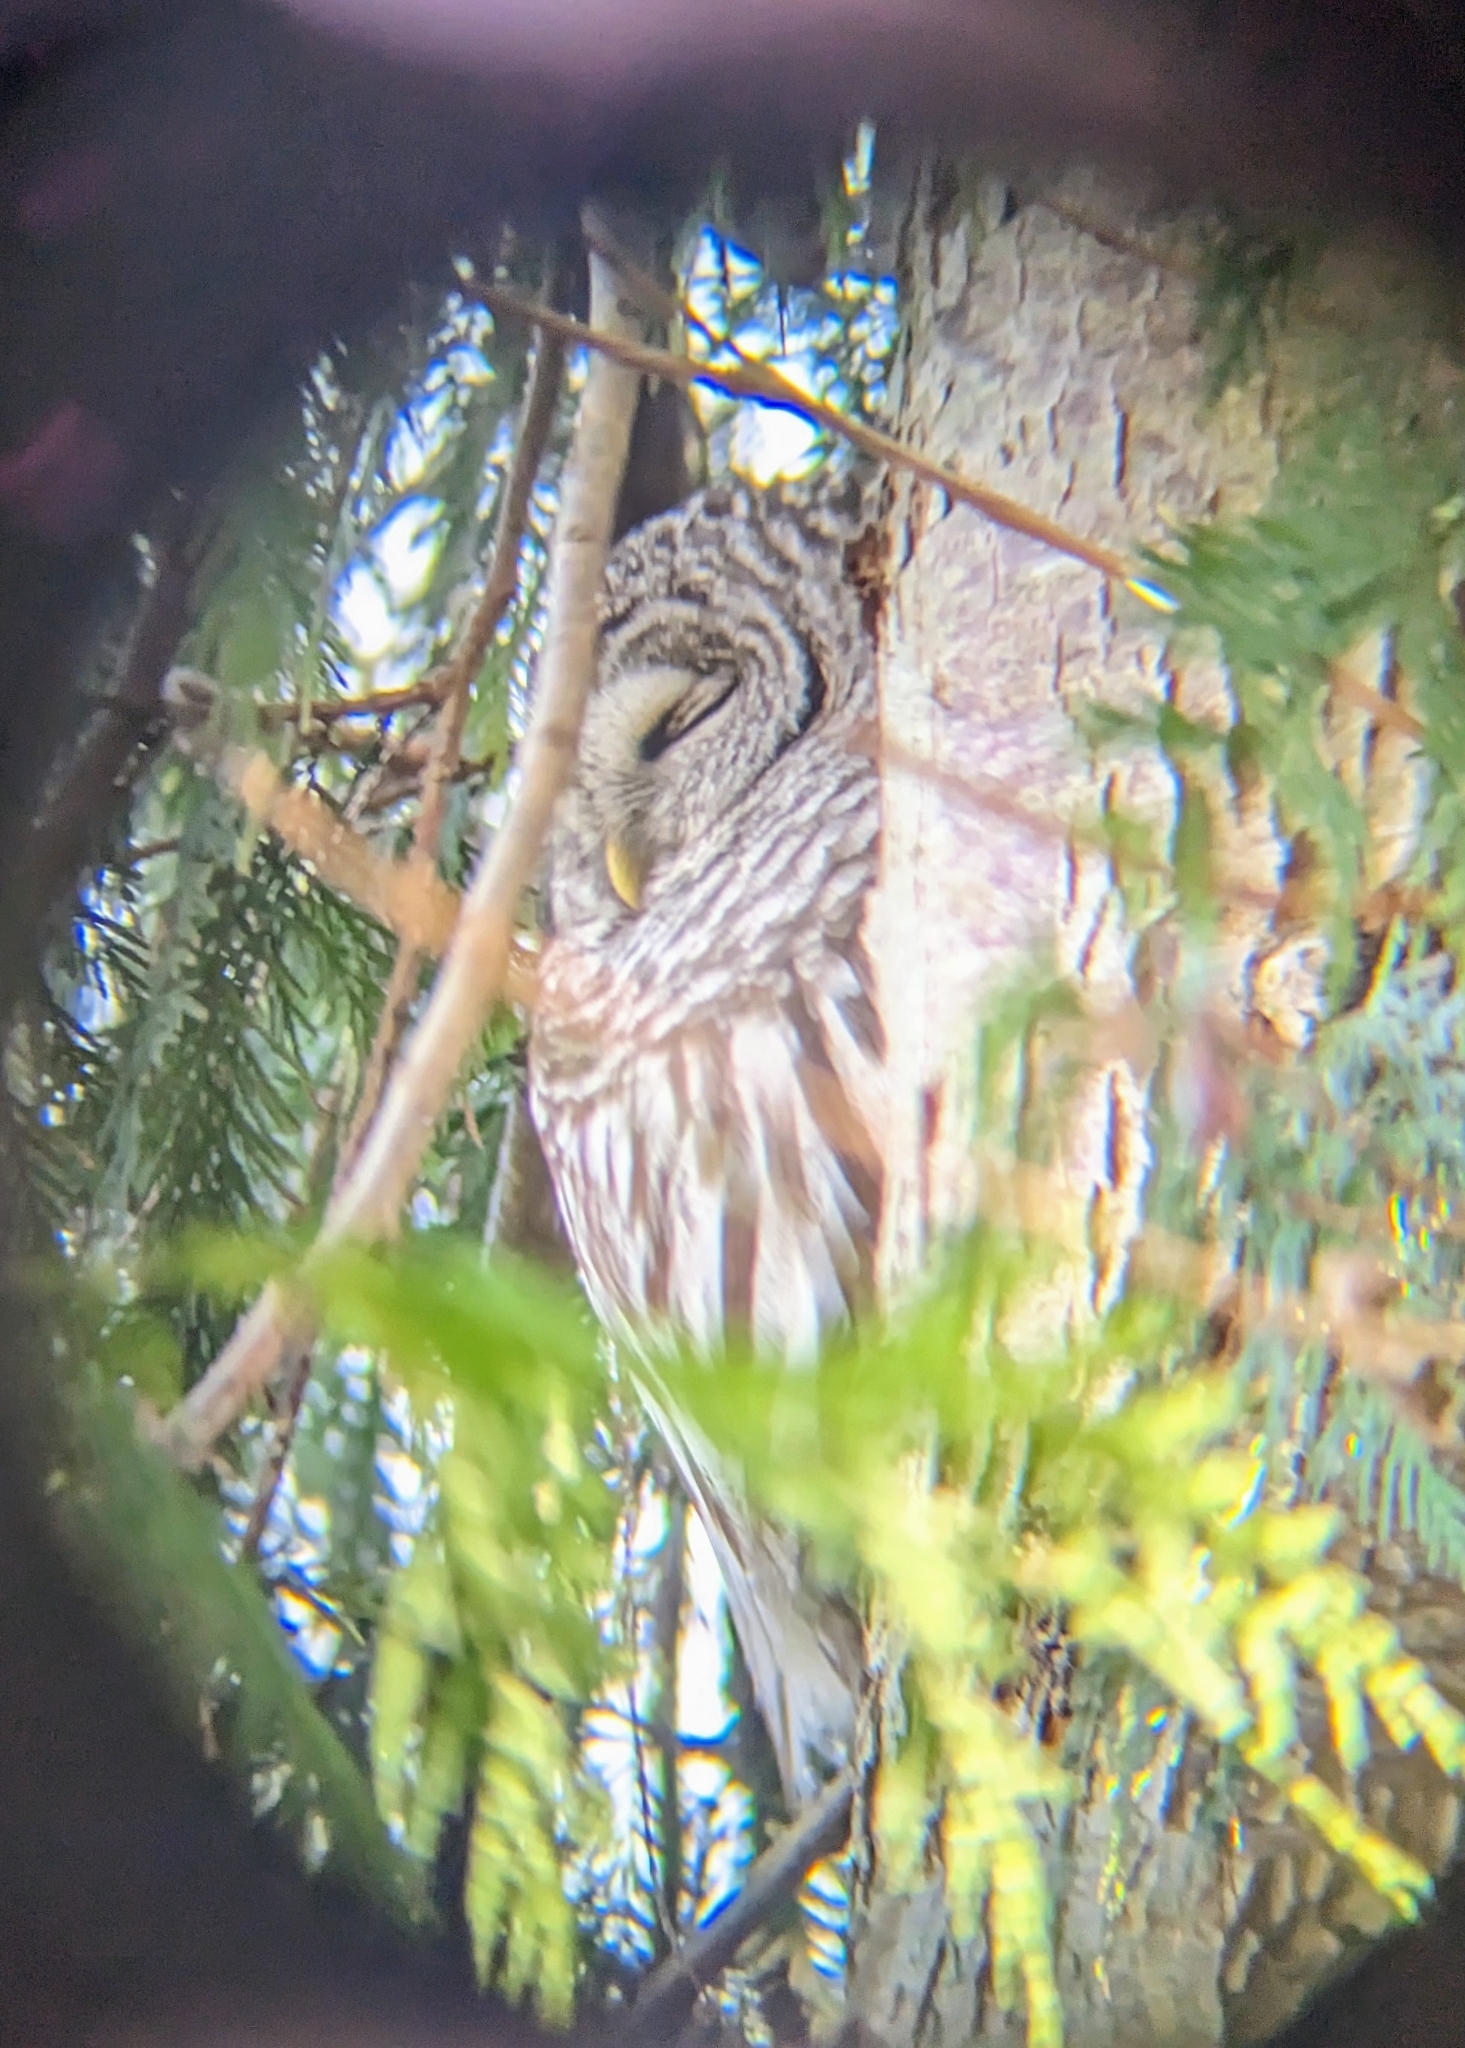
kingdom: Animalia
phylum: Chordata
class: Aves
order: Strigiformes
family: Strigidae
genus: Strix
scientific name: Strix varia
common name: Barred owl
